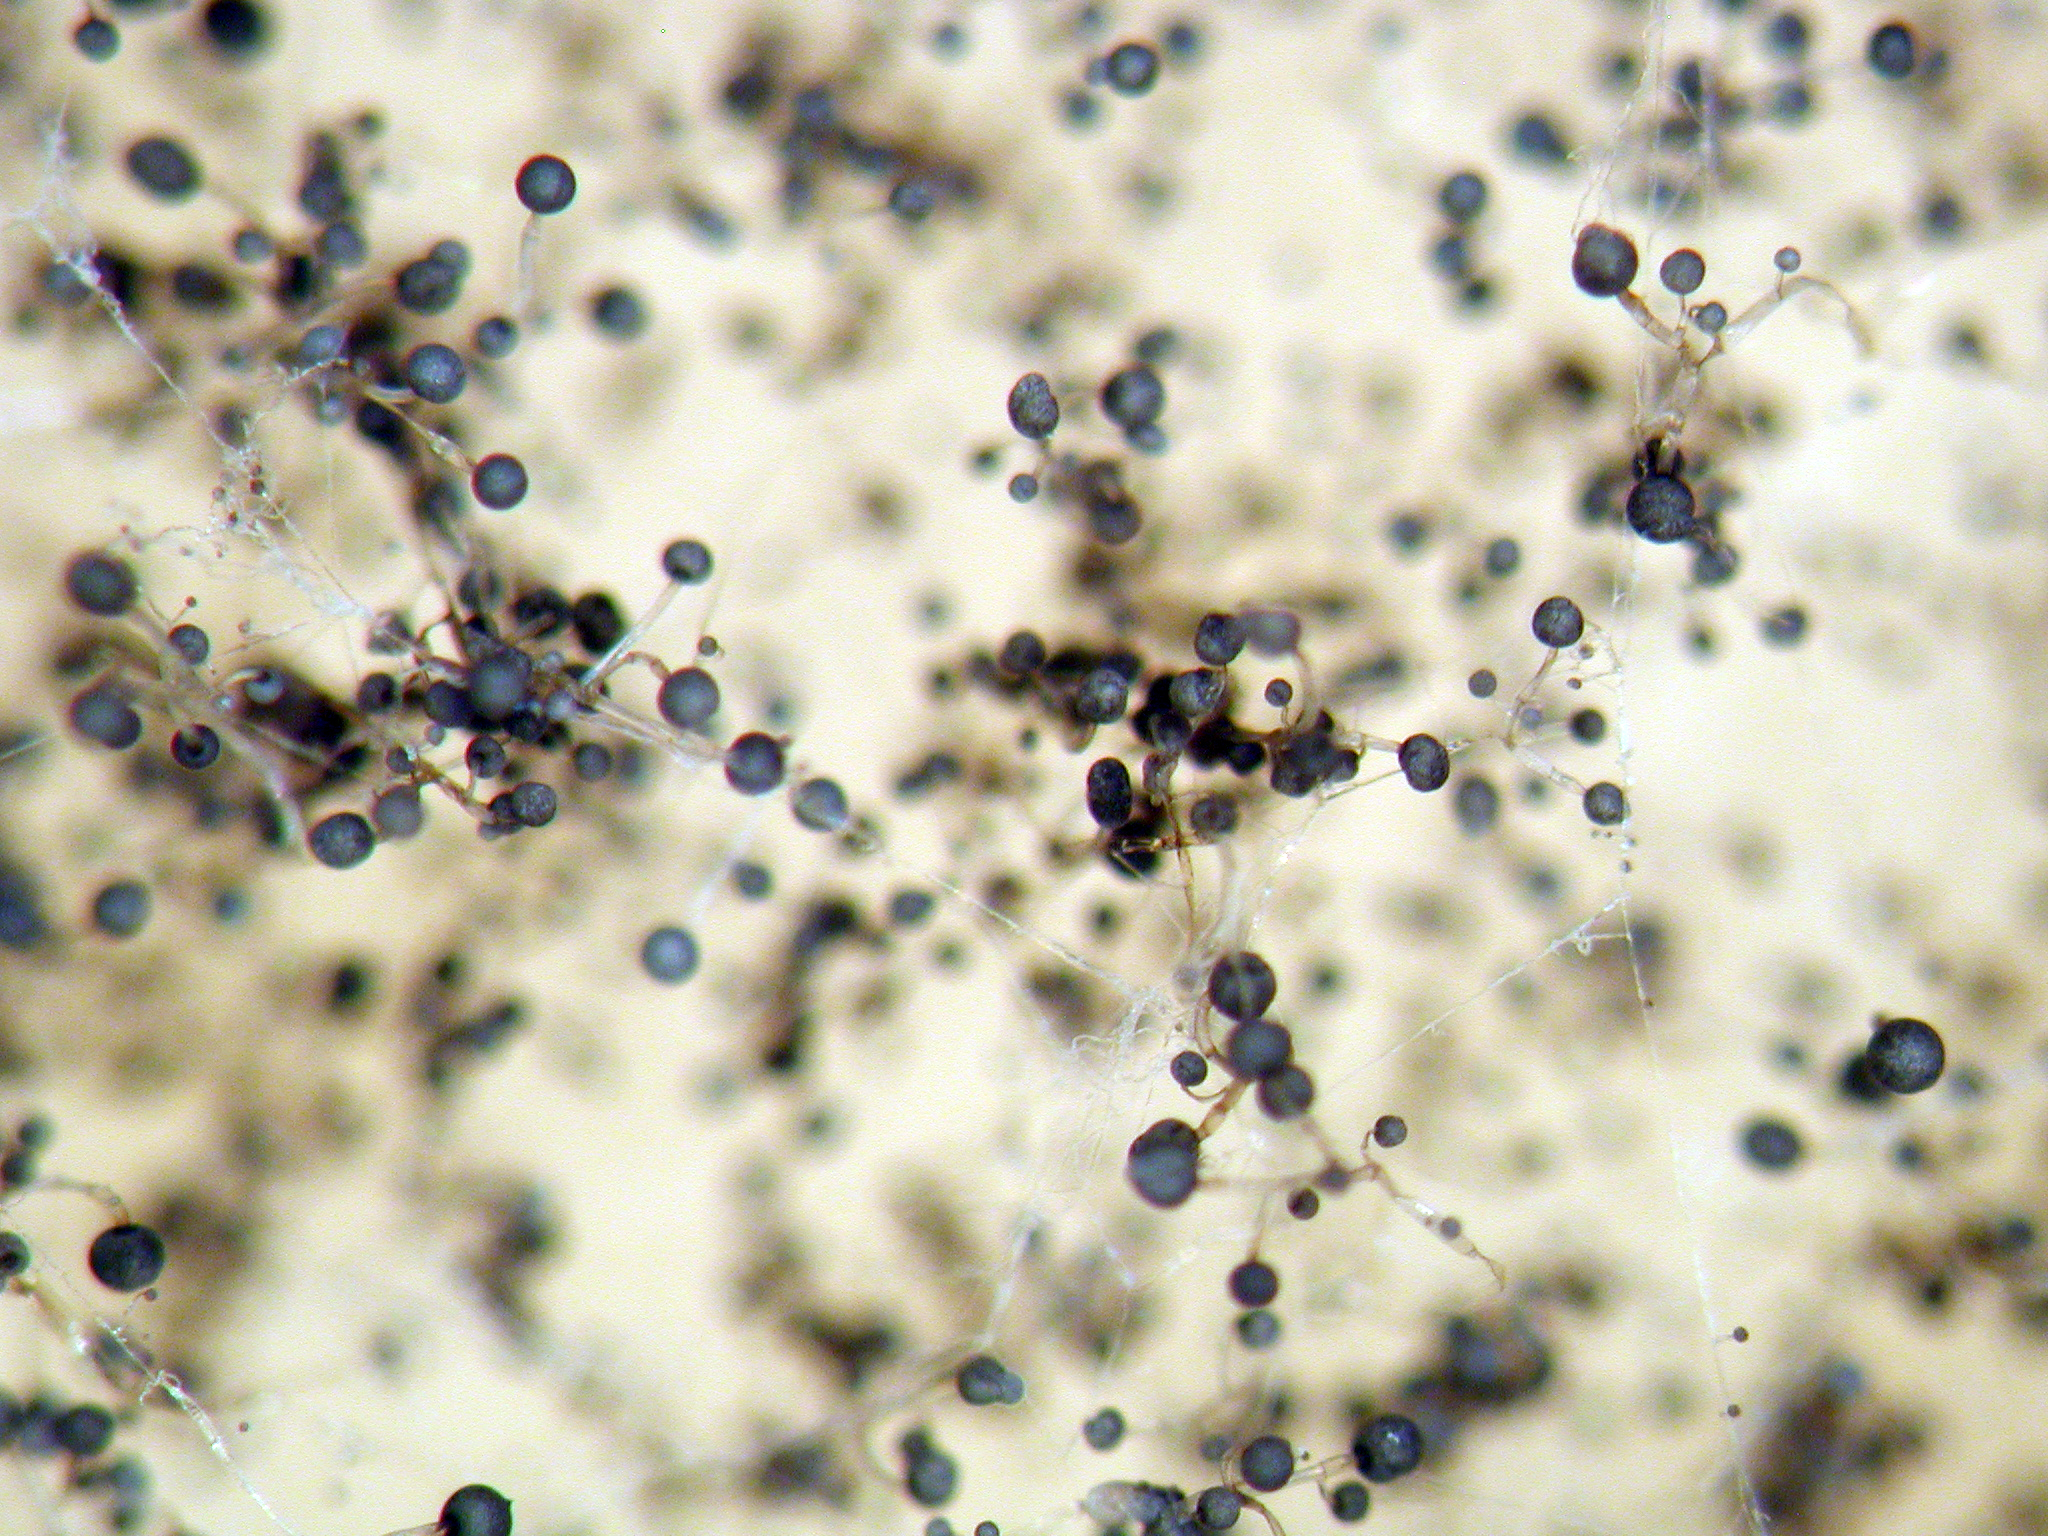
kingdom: Fungi
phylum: Mucoromycota
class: Mucoromycetes
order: Mucorales
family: Mucoraceae
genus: Mucor
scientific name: Mucor laxorrhizus
